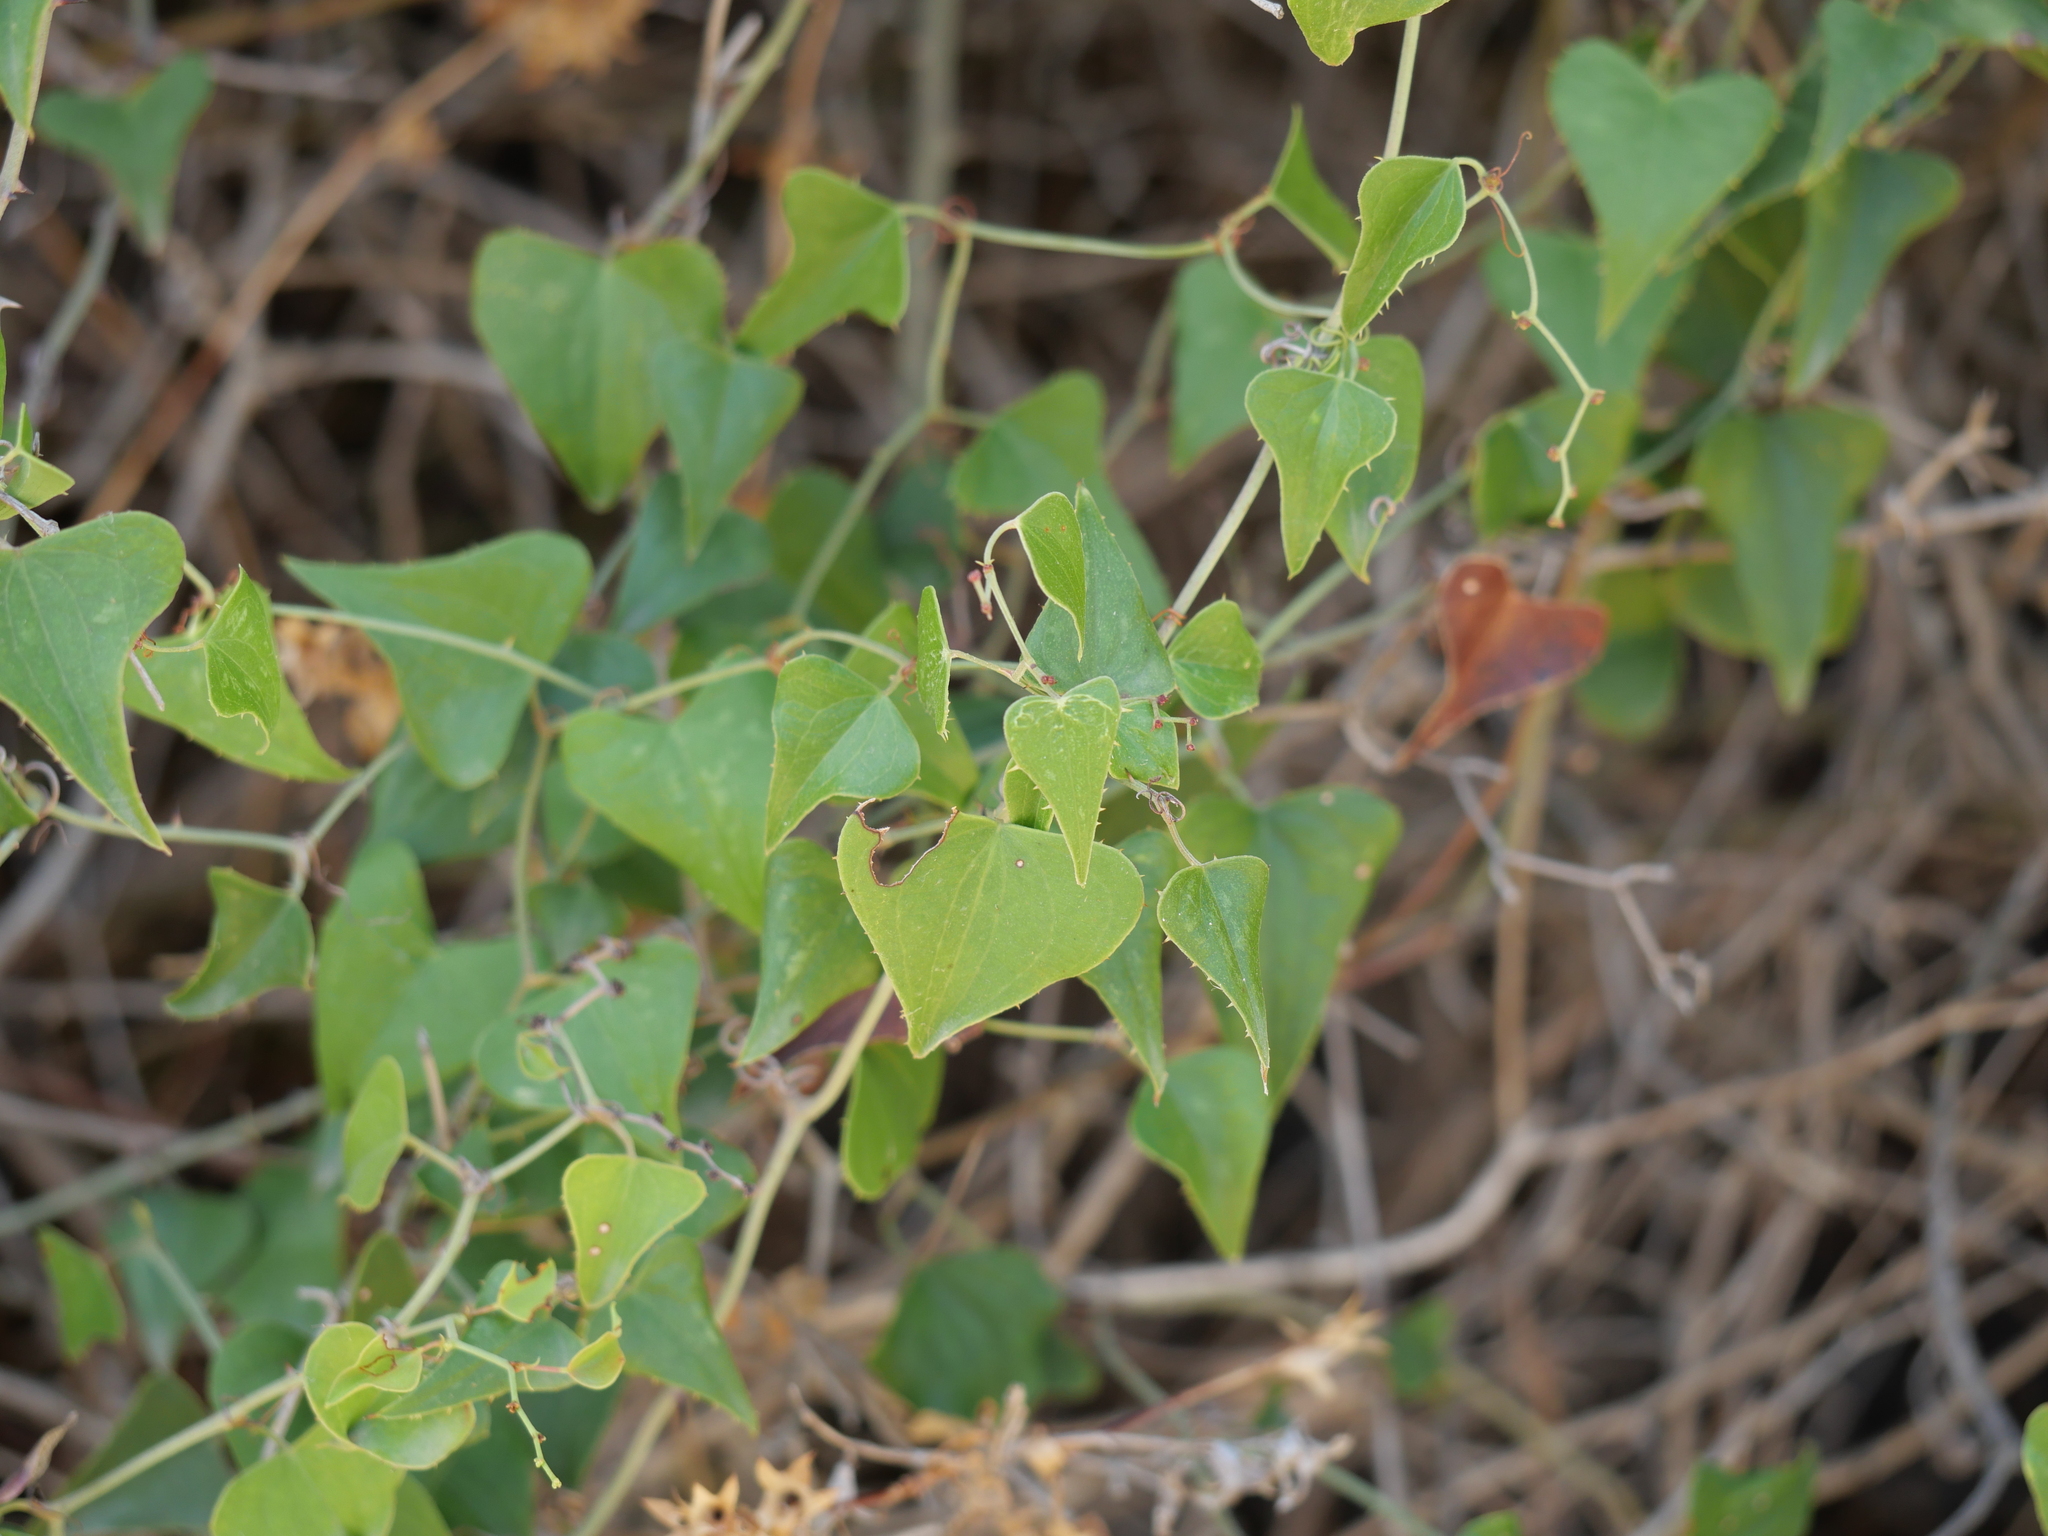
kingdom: Plantae
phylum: Tracheophyta
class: Liliopsida
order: Liliales
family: Smilacaceae
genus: Smilax
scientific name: Smilax aspera
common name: Common smilax
